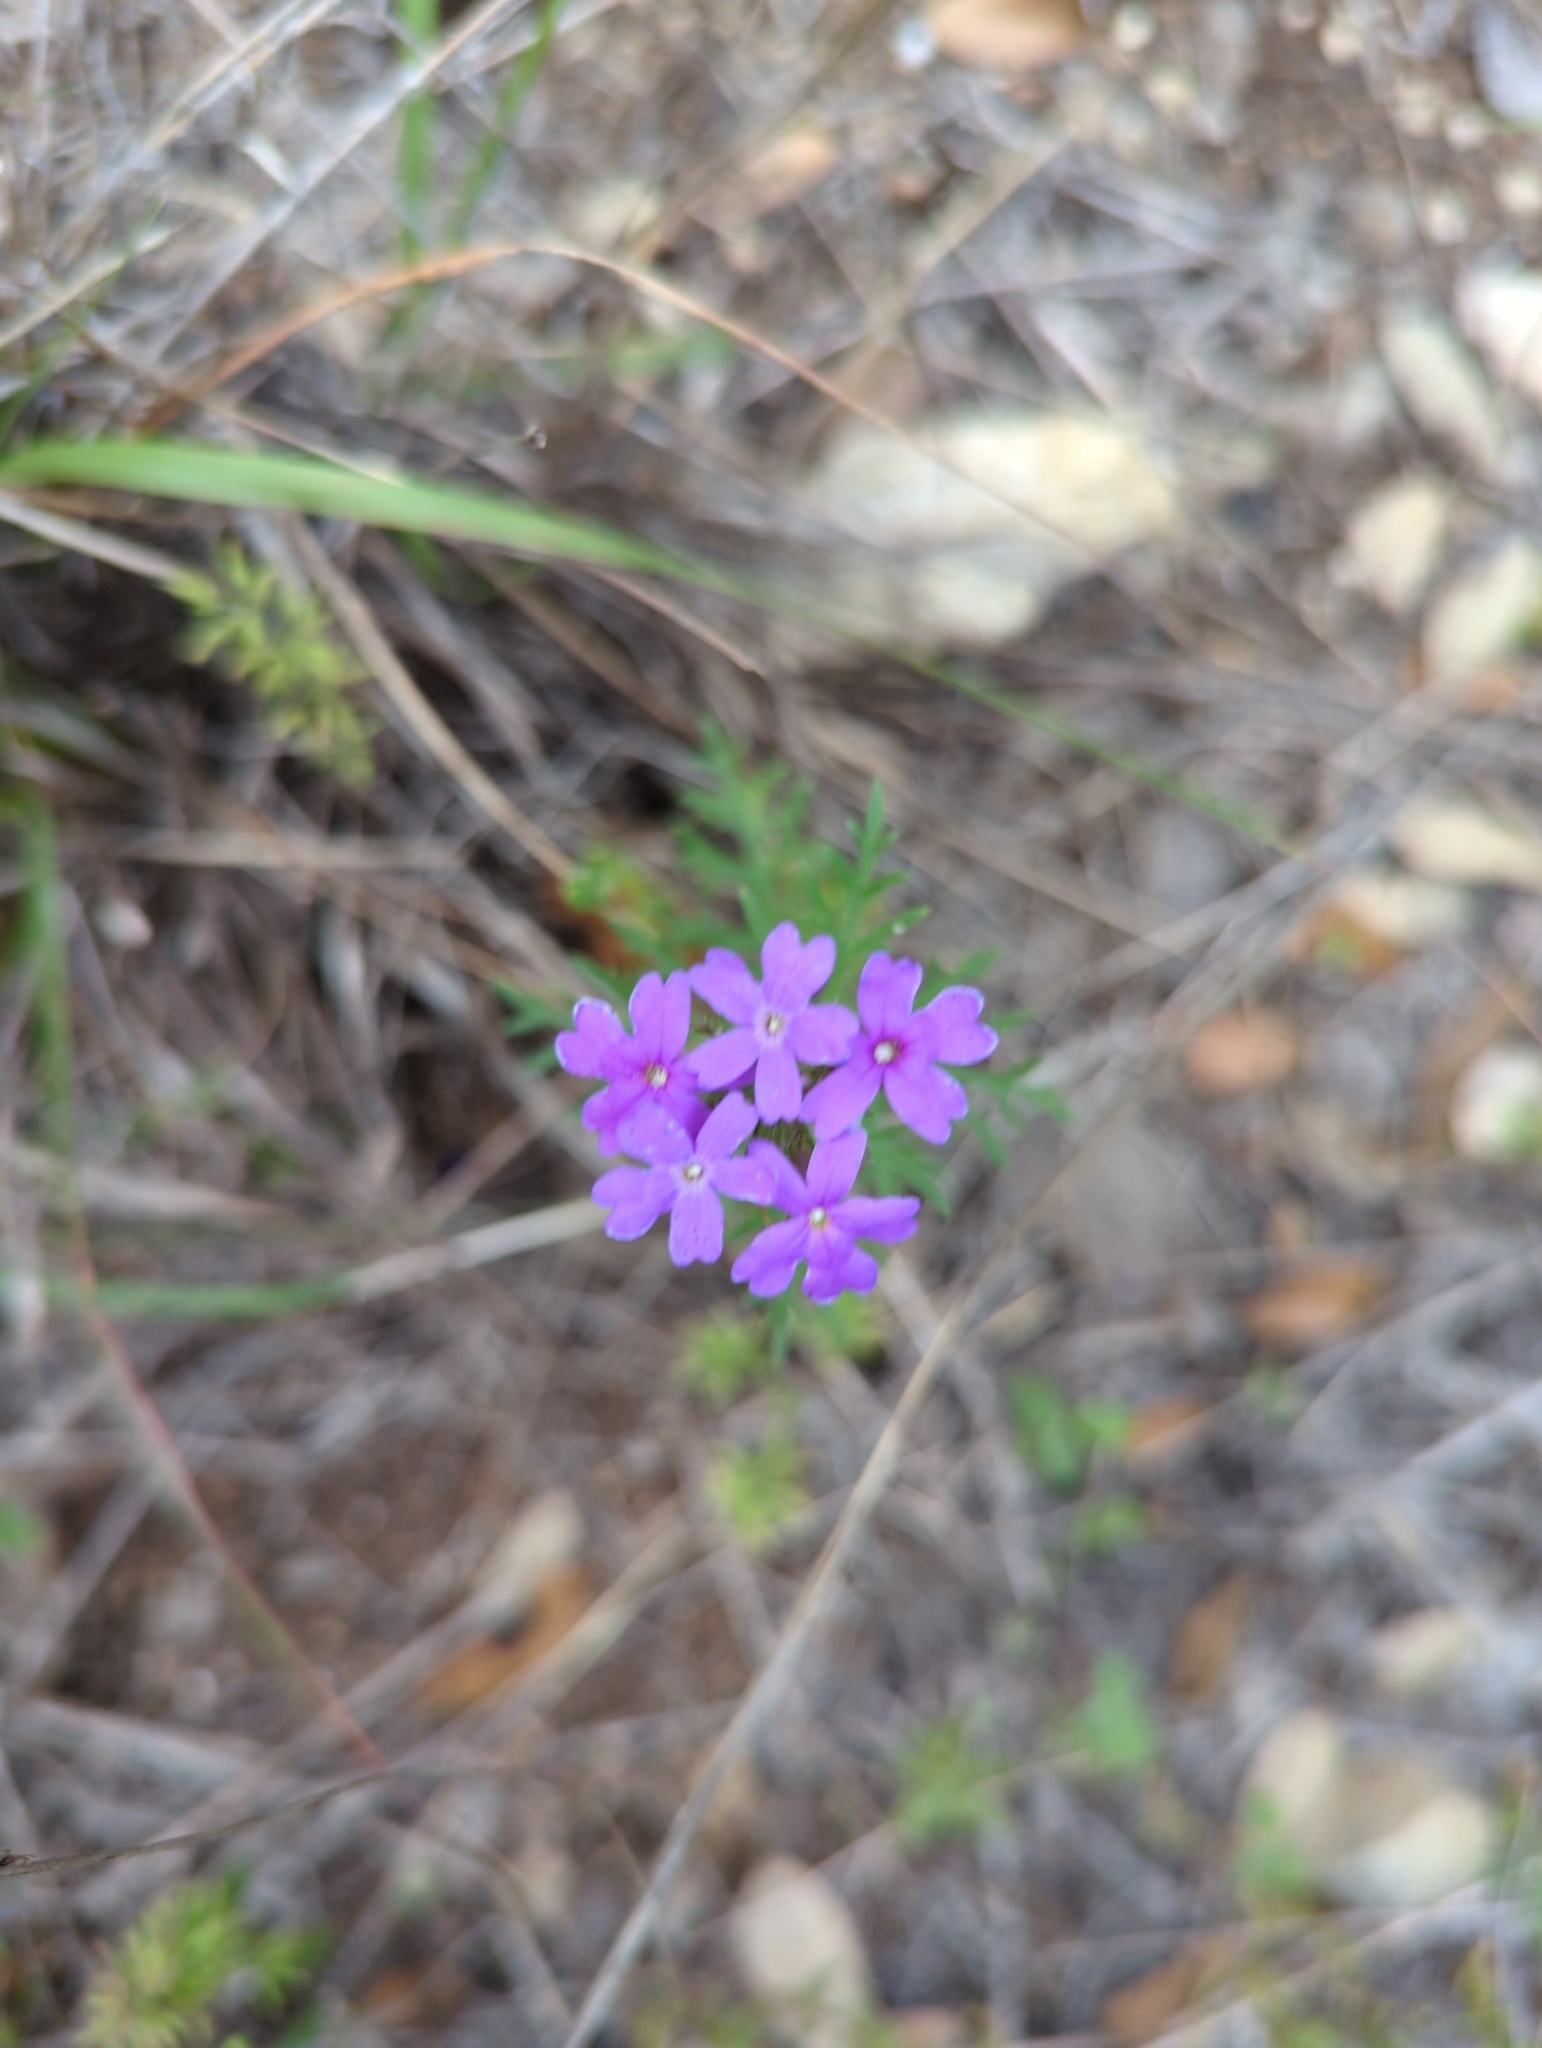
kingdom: Plantae
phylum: Tracheophyta
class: Magnoliopsida
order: Lamiales
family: Verbenaceae
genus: Verbena
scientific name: Verbena bipinnatifida
